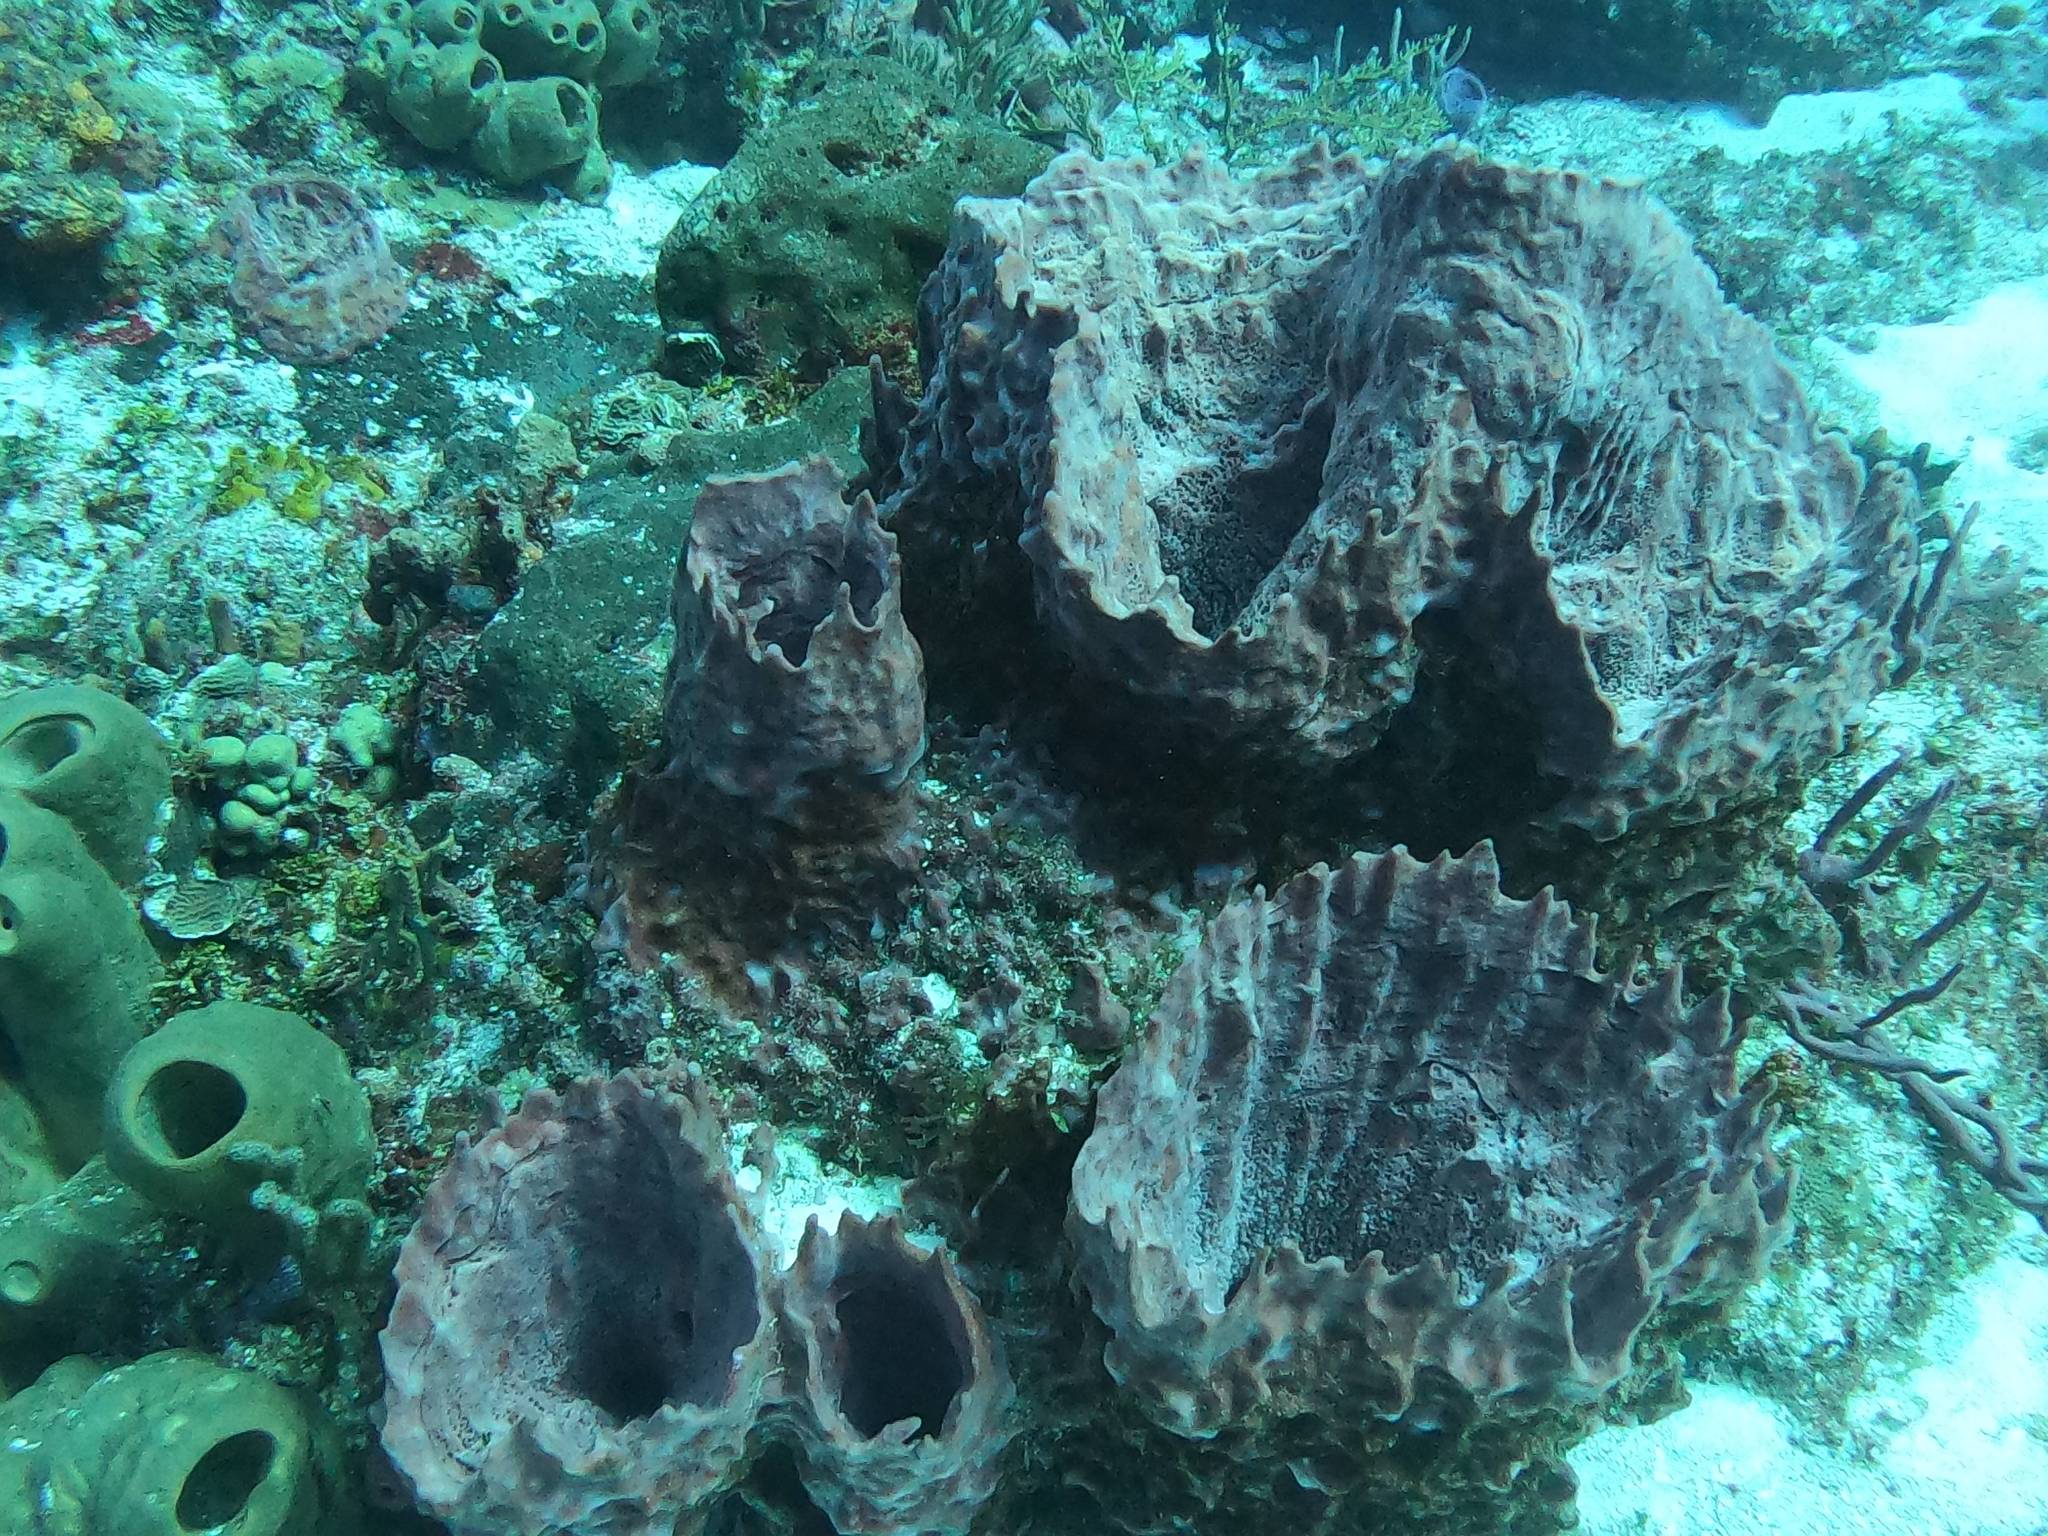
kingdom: Animalia
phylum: Porifera
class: Demospongiae
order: Haplosclerida
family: Petrosiidae
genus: Xestospongia
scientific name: Xestospongia muta
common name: Giant barrel sponge
